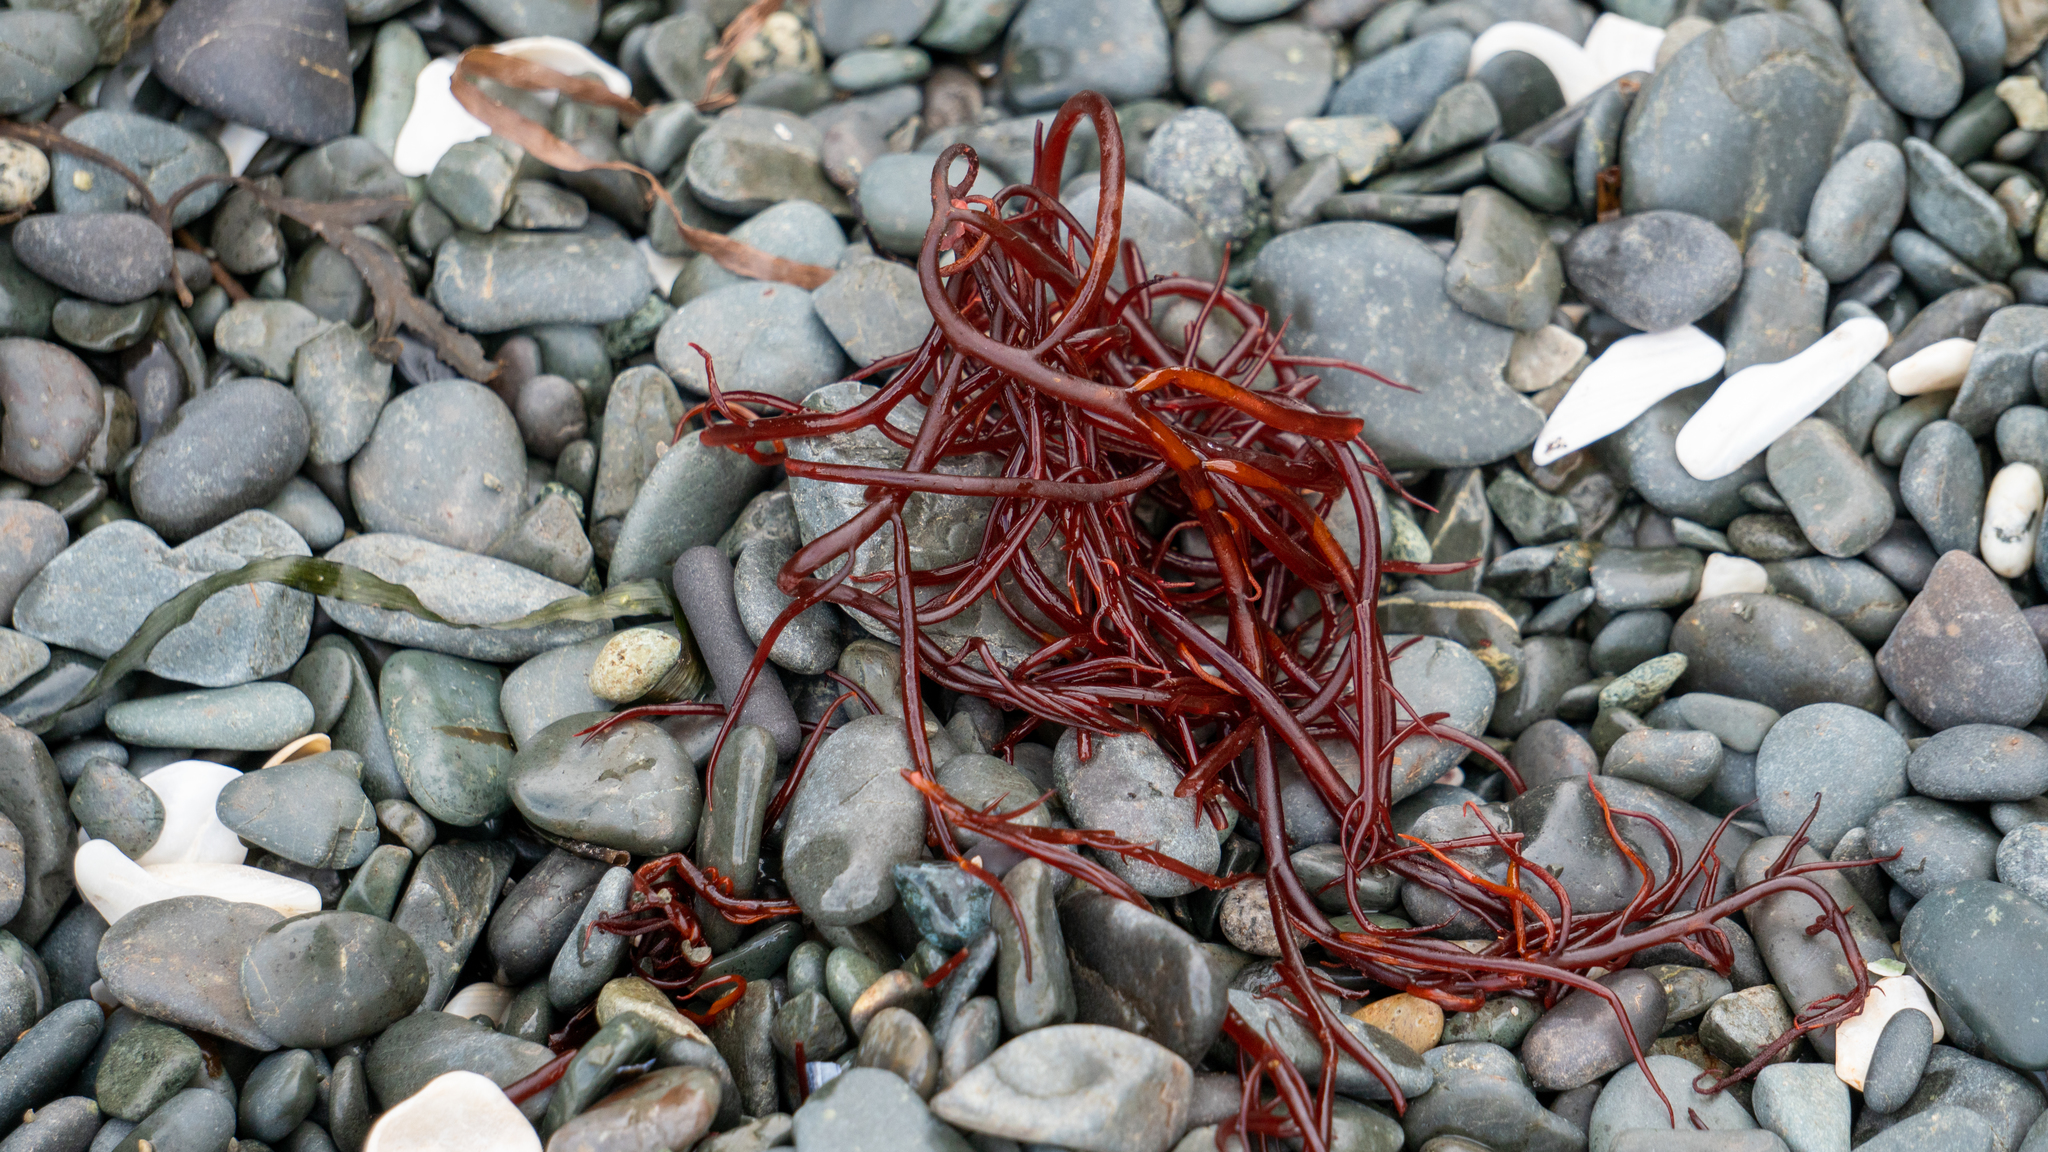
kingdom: Plantae
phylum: Rhodophyta
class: Florideophyceae
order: Gigartinales
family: Solieriaceae
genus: Sarcodiotheca
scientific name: Sarcodiotheca gaudichaudii
